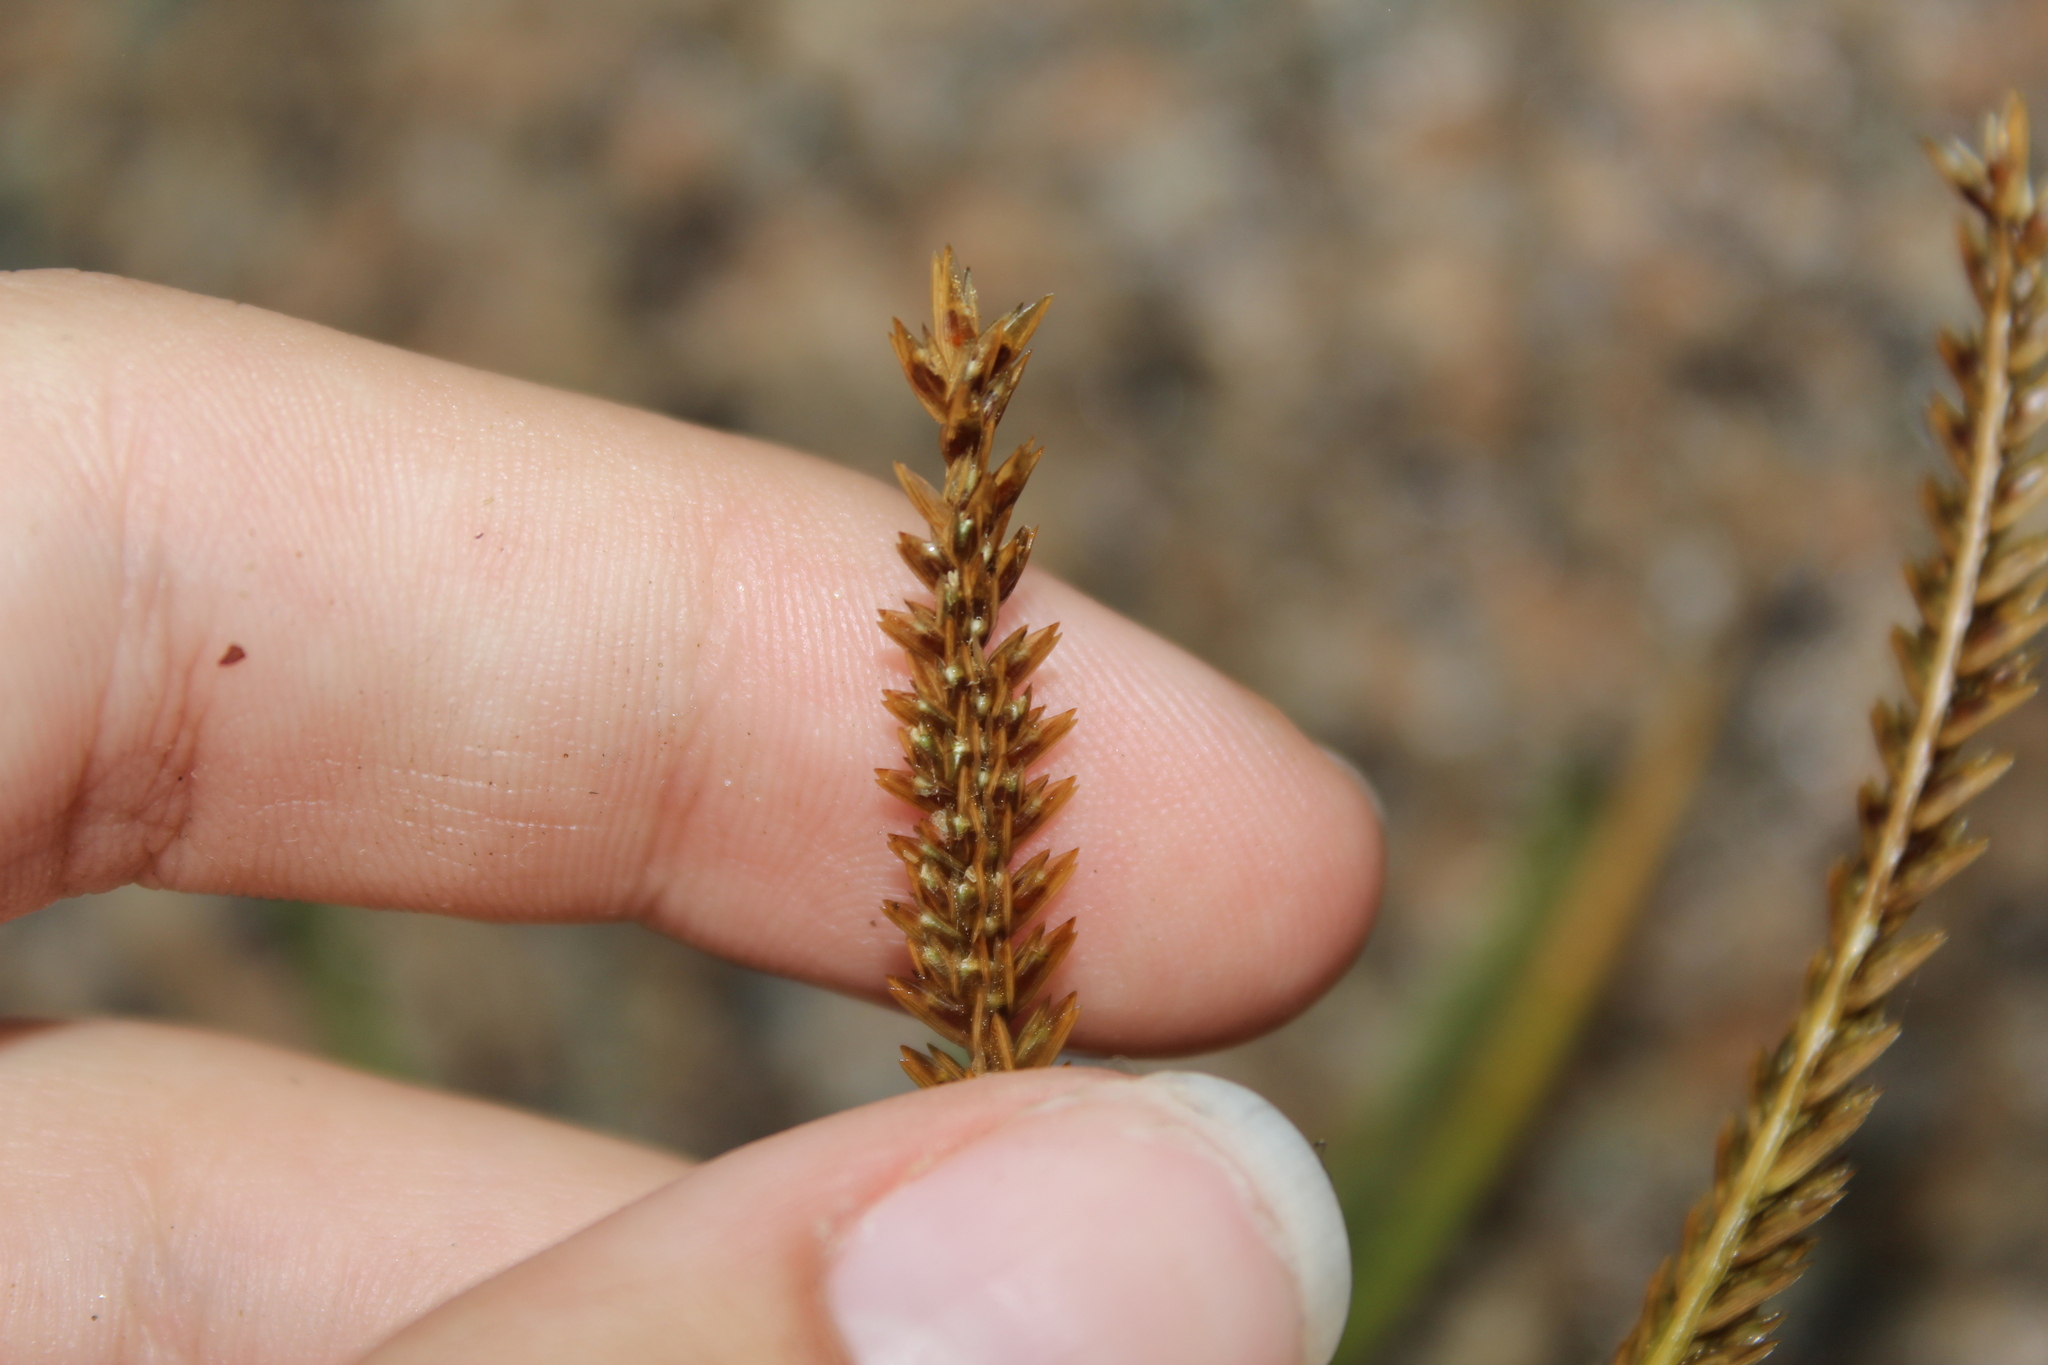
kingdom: Plantae
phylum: Tracheophyta
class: Liliopsida
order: Poales
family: Poaceae
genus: Eleusine
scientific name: Eleusine indica
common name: Yard-grass
